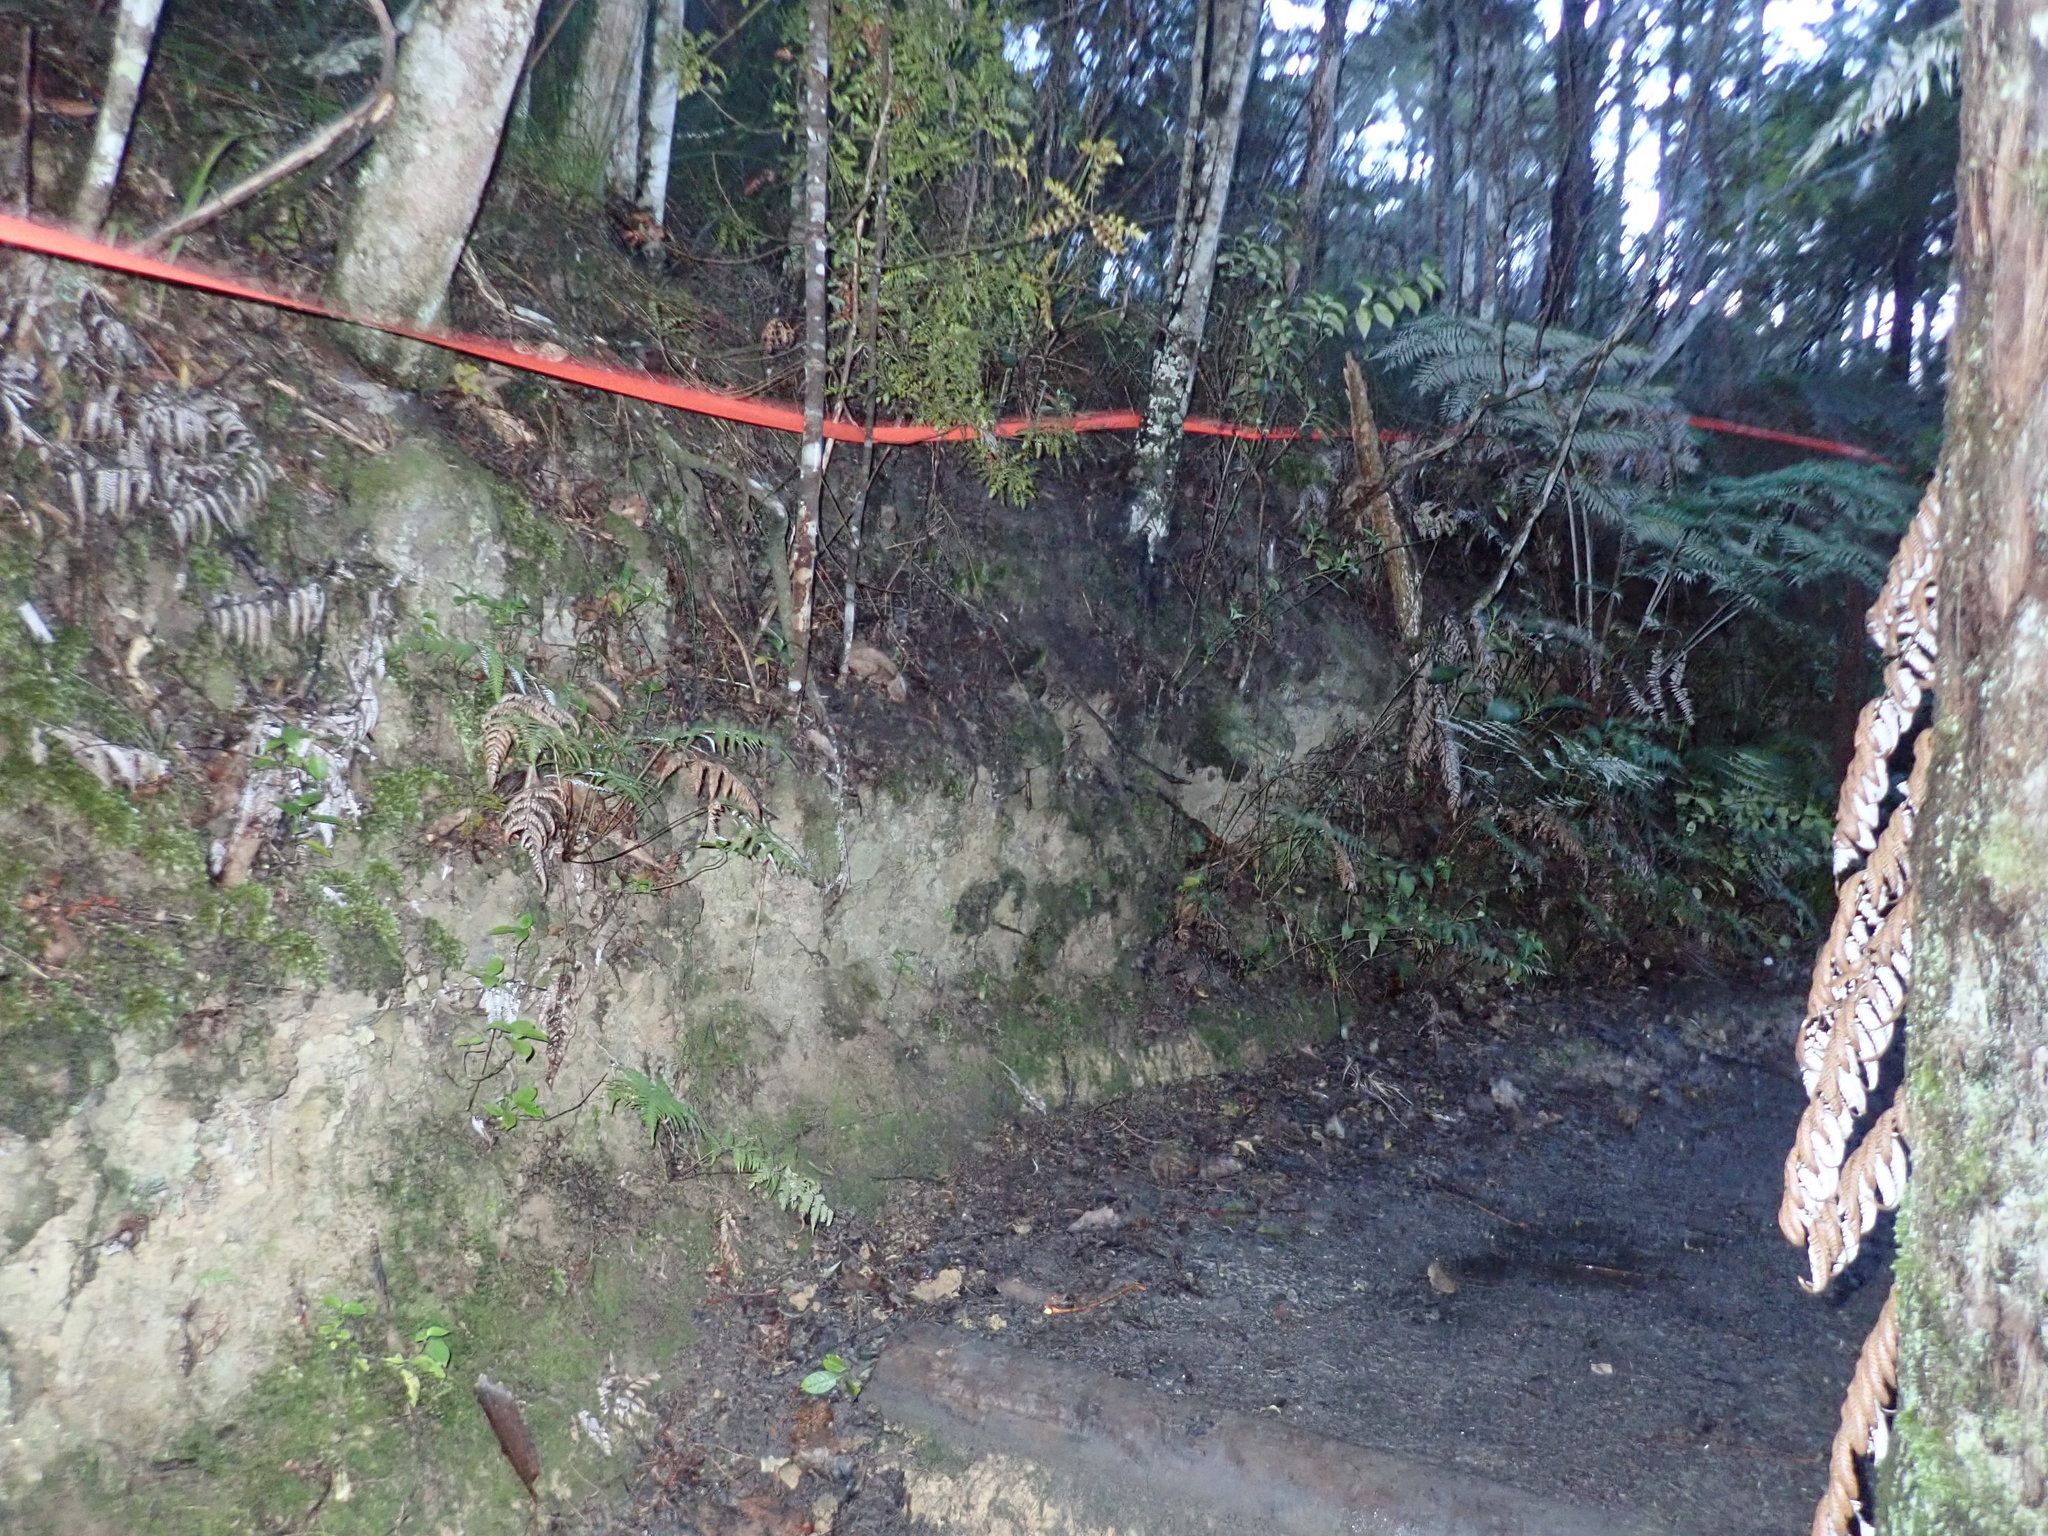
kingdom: Plantae
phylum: Tracheophyta
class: Polypodiopsida
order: Cyatheales
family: Cyatheaceae
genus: Alsophila
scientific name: Alsophila dealbata
